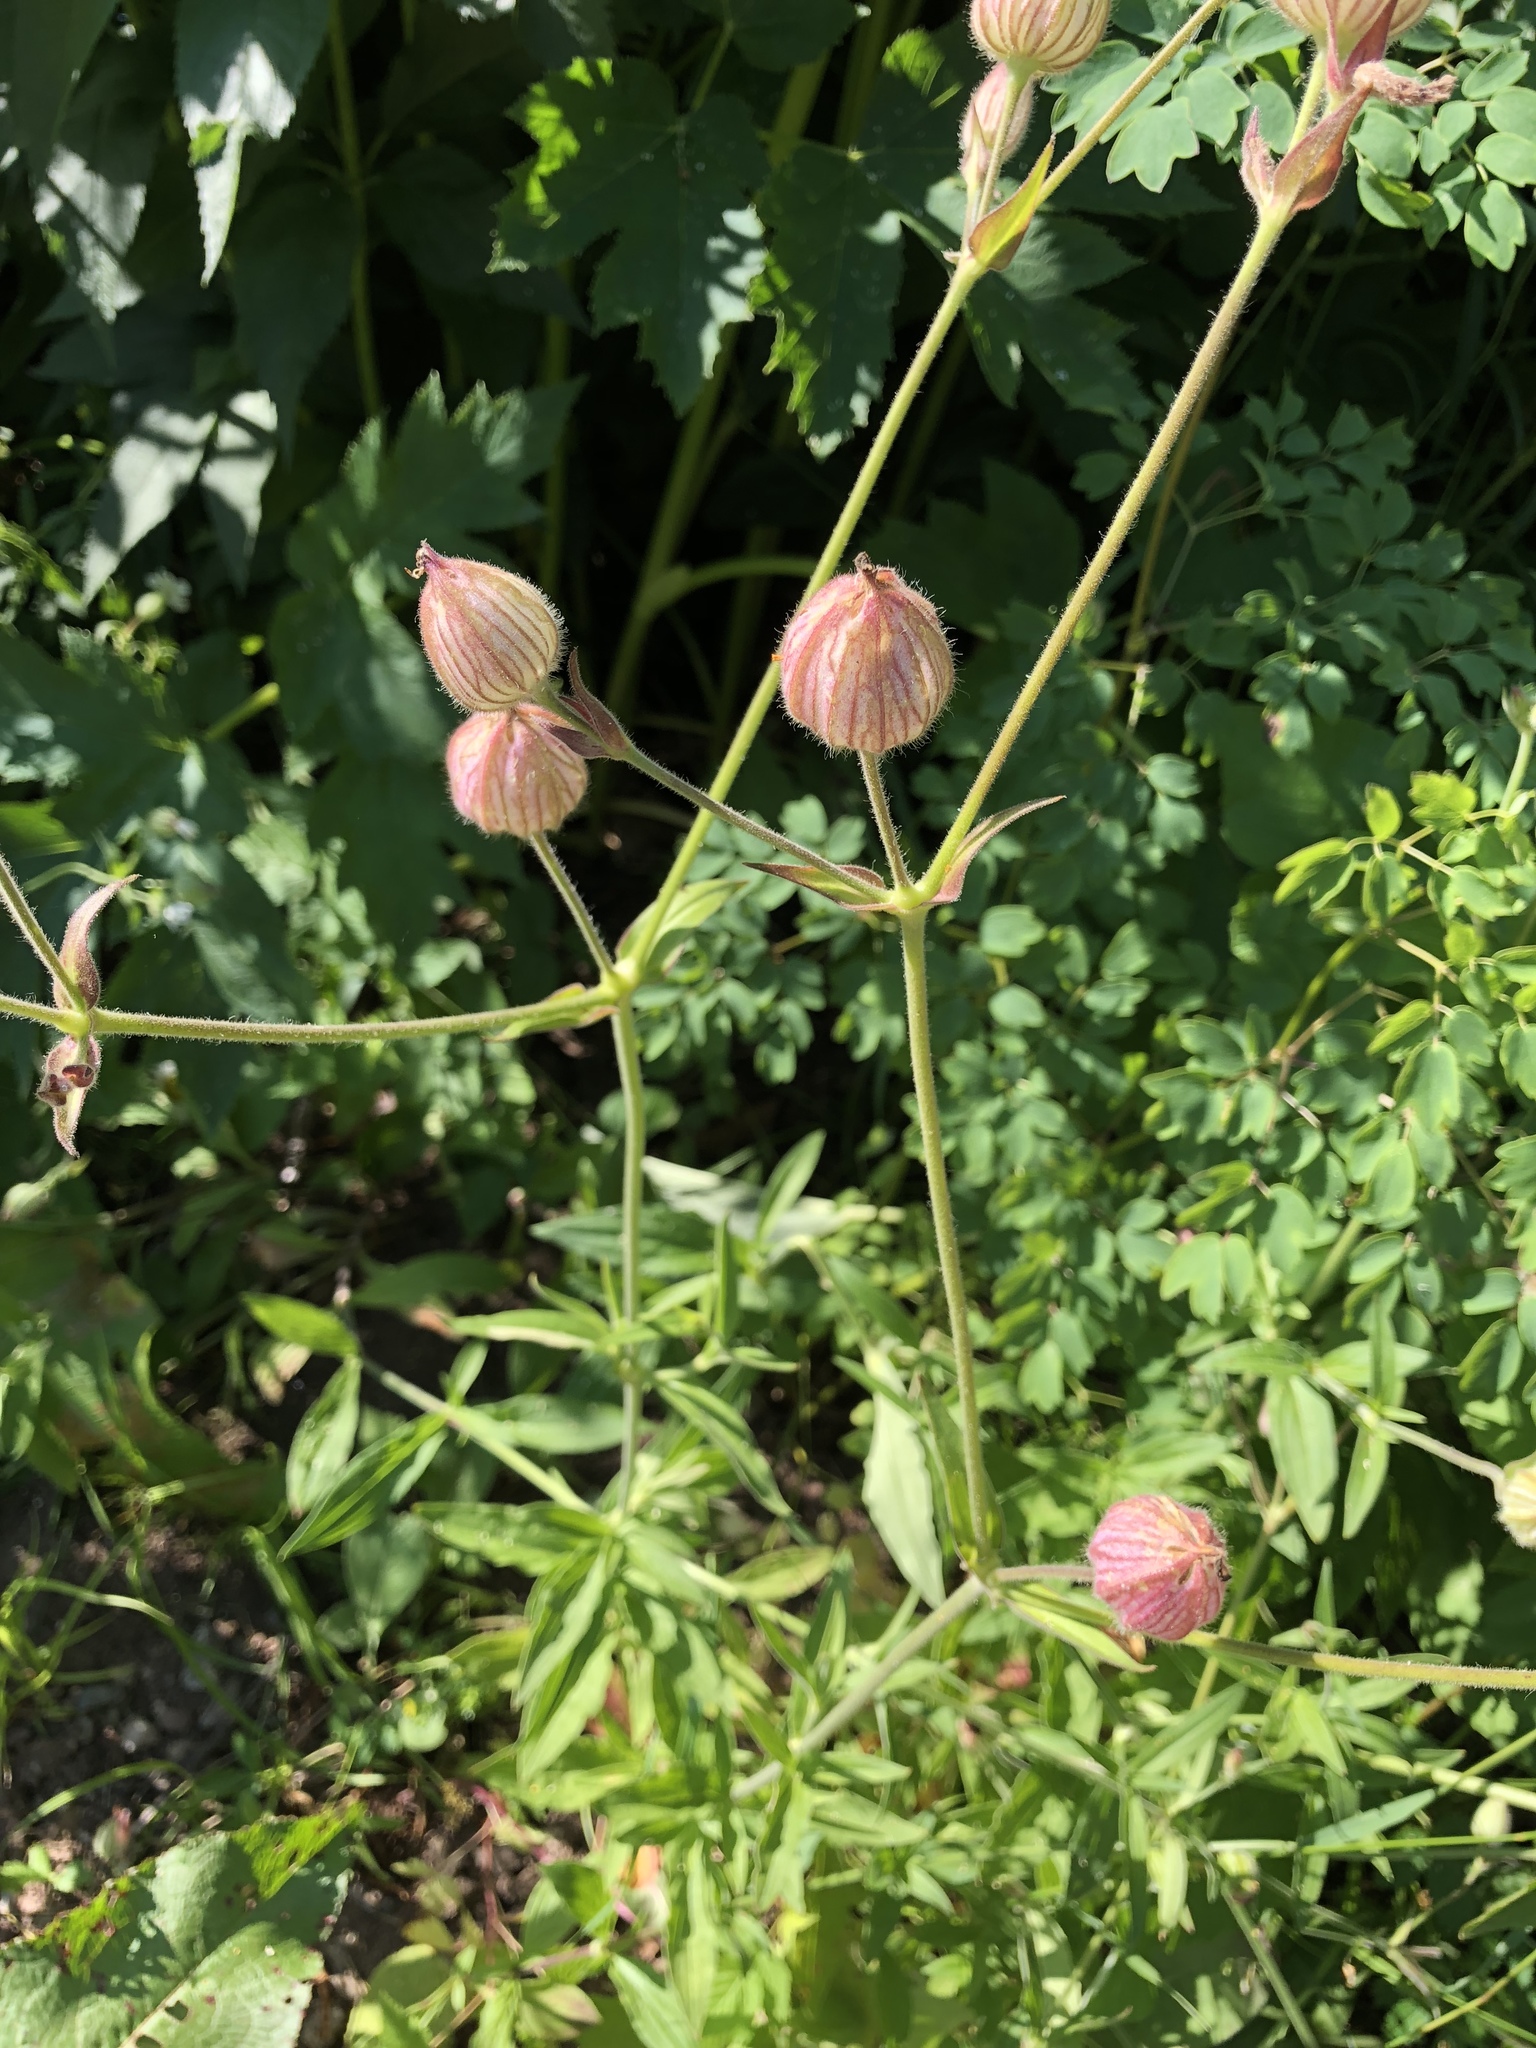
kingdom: Plantae
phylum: Tracheophyta
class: Magnoliopsida
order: Caryophyllales
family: Caryophyllaceae
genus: Silene
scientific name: Silene latifolia
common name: White campion
